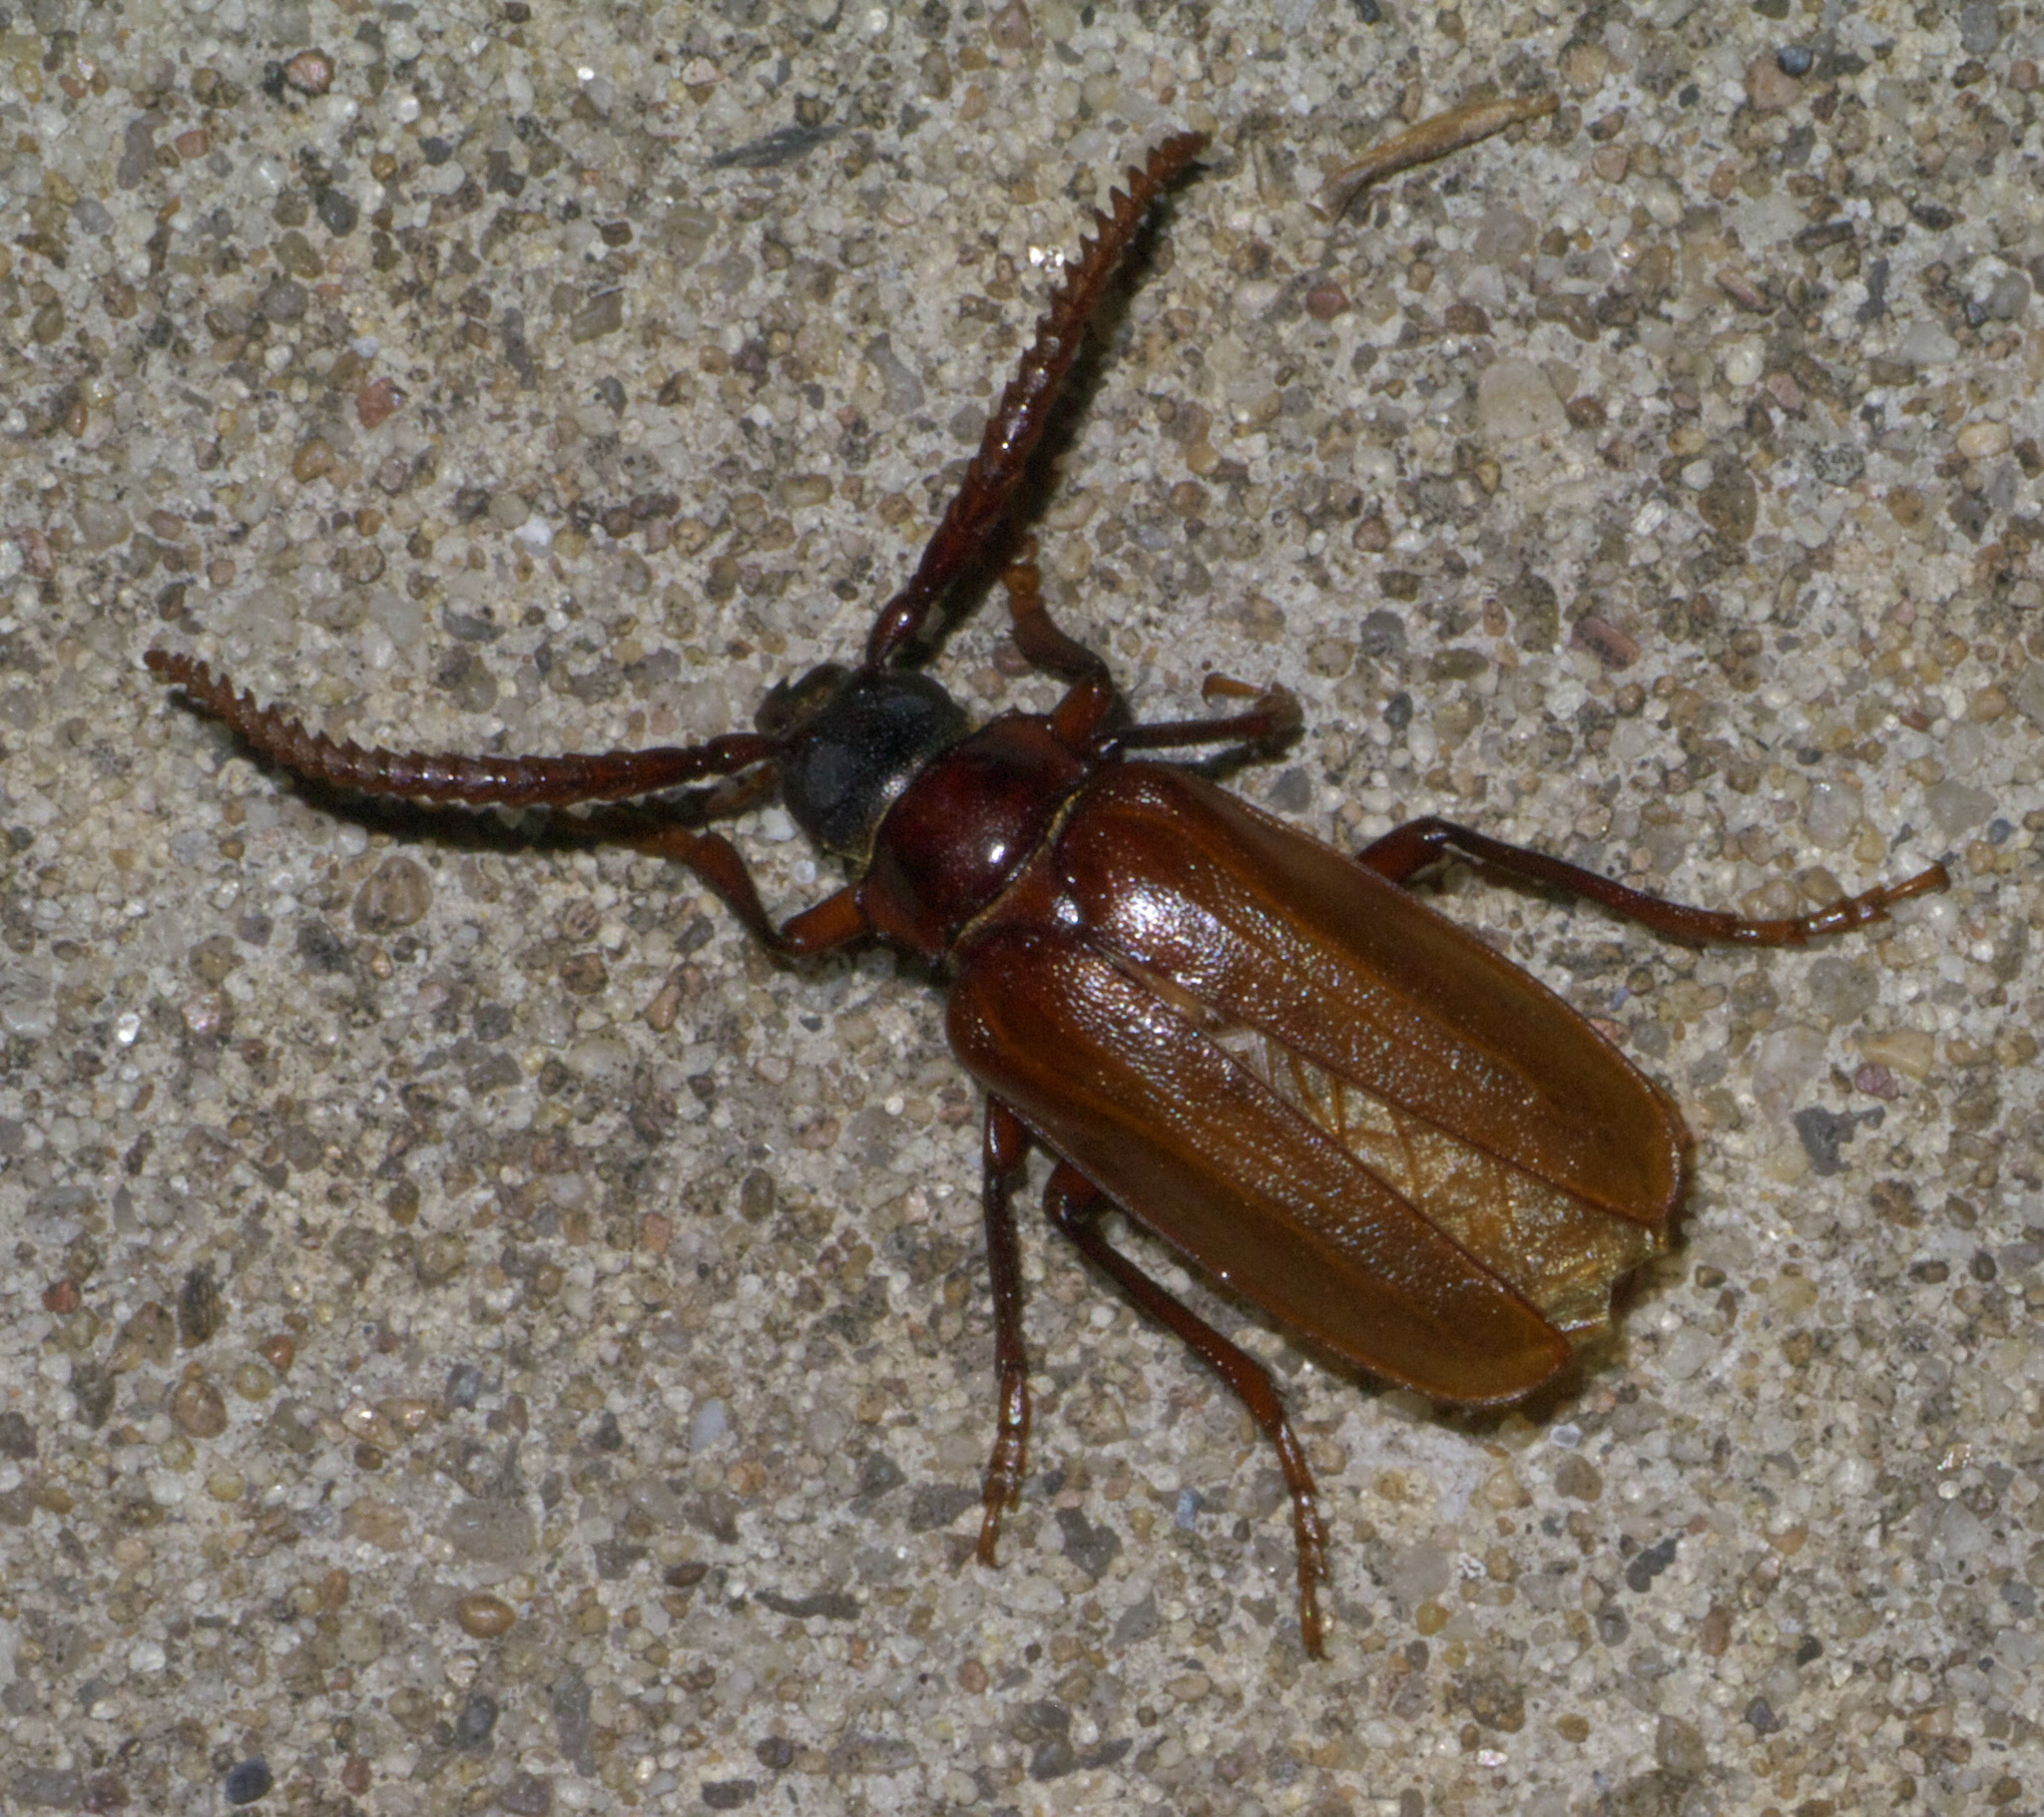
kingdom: Animalia
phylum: Arthropoda
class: Insecta
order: Coleoptera
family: Cerambycidae
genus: Prionus
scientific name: Prionus debilis
